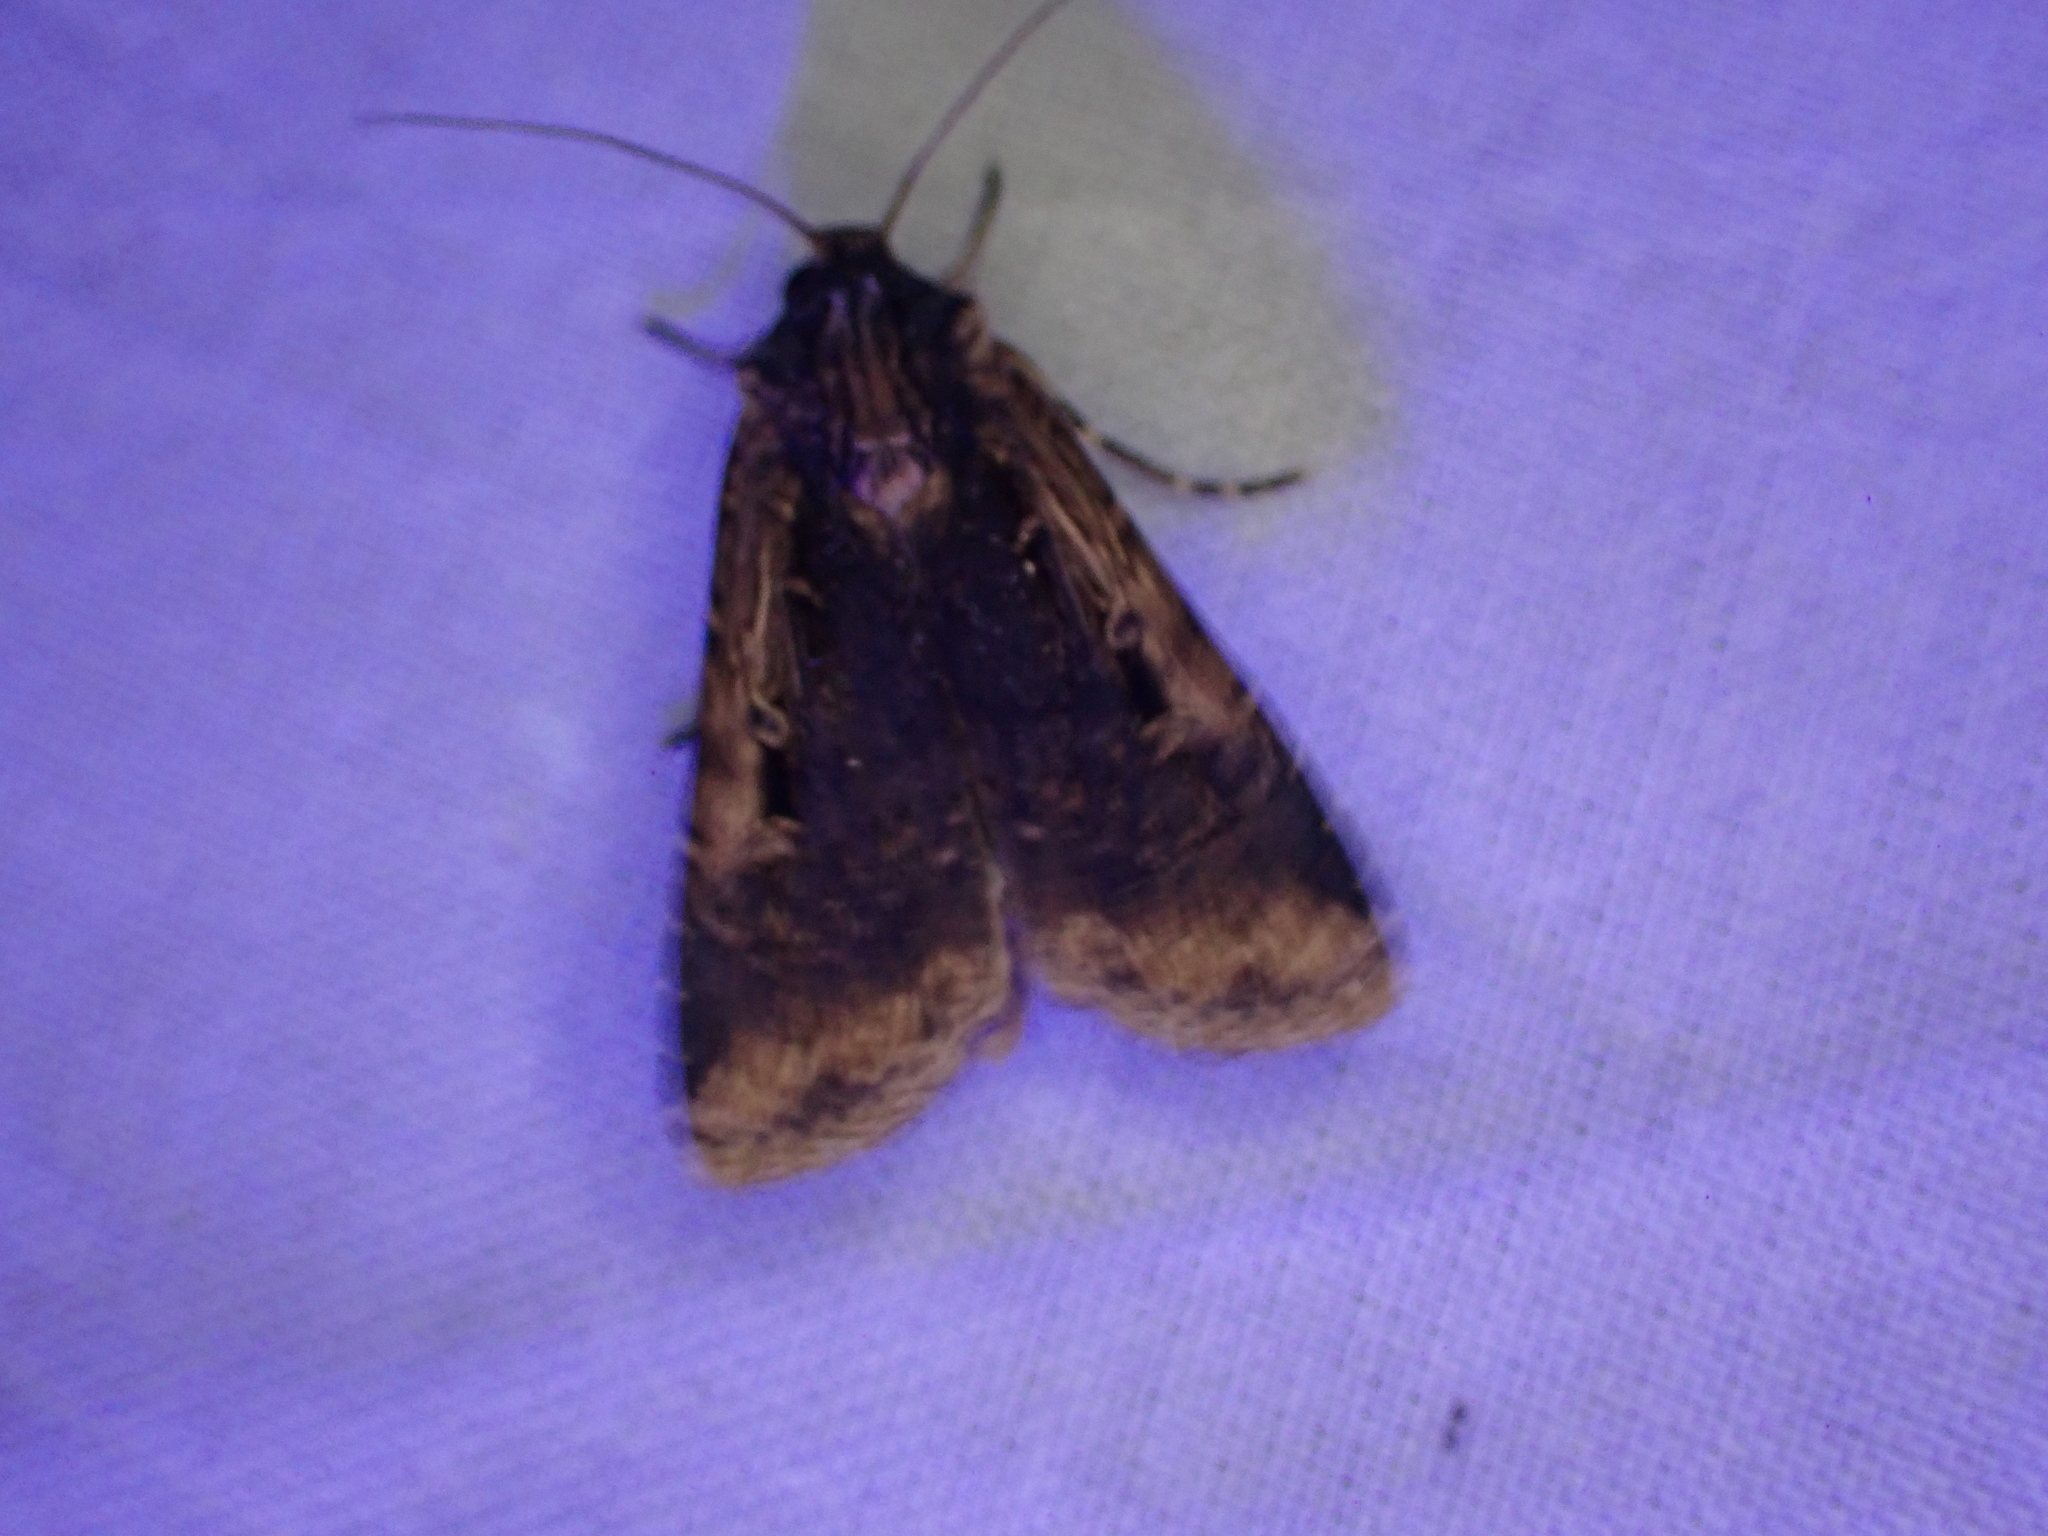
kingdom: Animalia
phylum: Arthropoda
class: Insecta
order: Lepidoptera
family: Noctuidae
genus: Feltia
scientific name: Feltia subterranea
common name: Granulate cutworm
